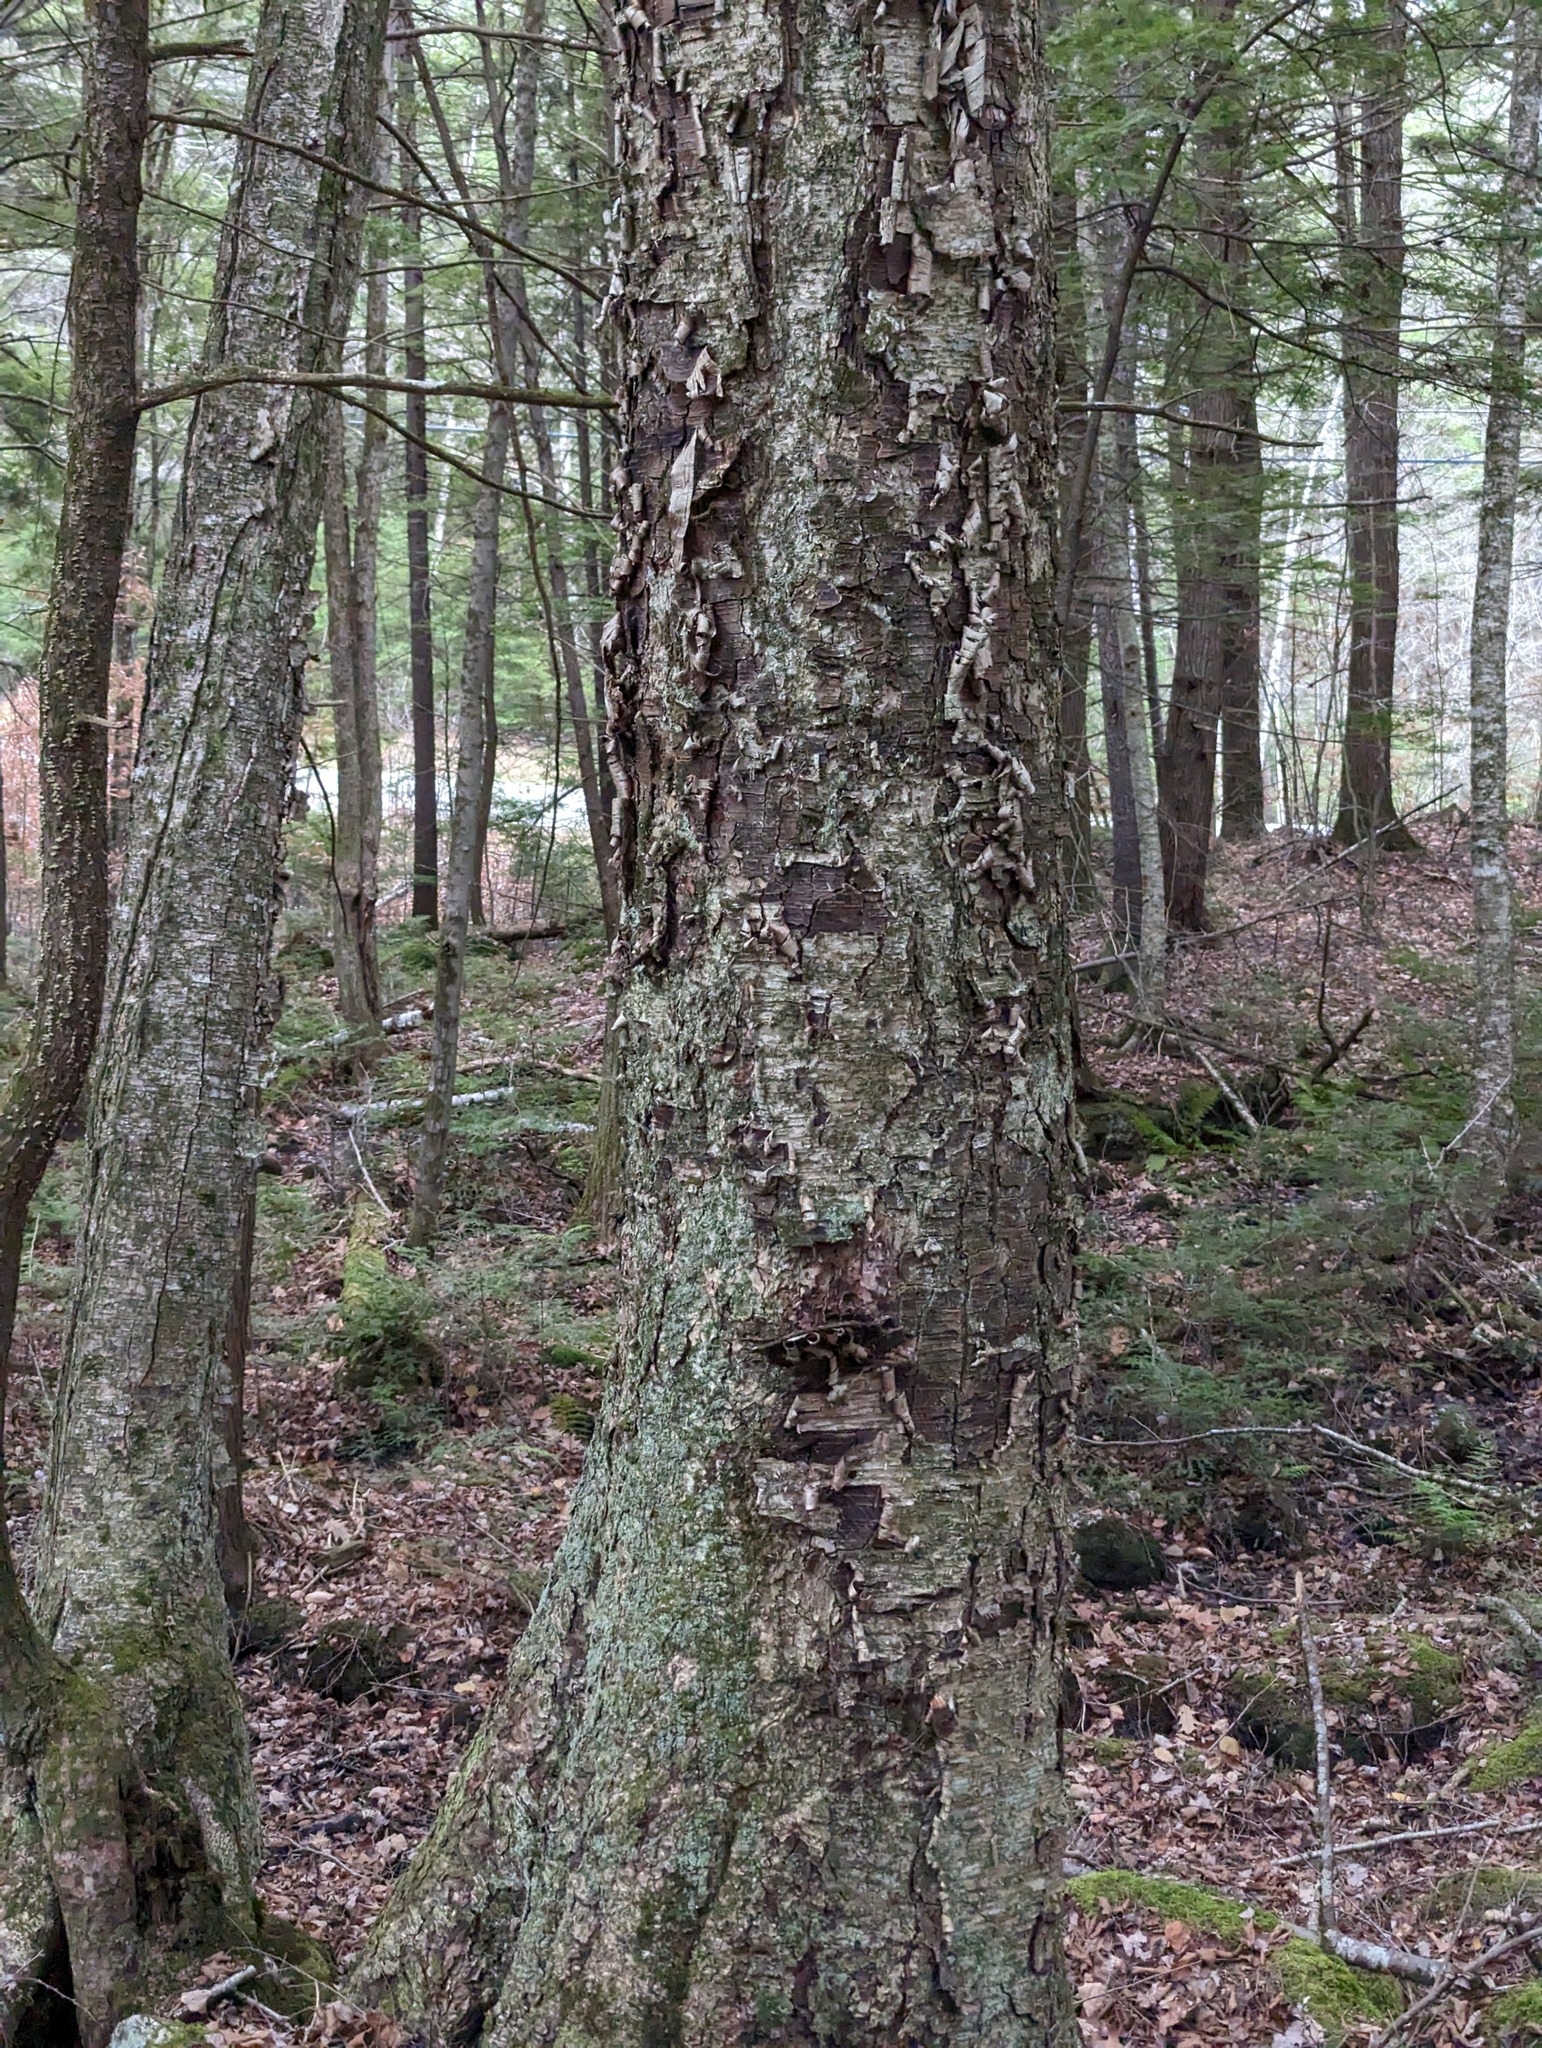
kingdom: Plantae
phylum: Tracheophyta
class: Magnoliopsida
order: Fagales
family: Betulaceae
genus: Betula
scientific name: Betula alleghaniensis
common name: Yellow birch
